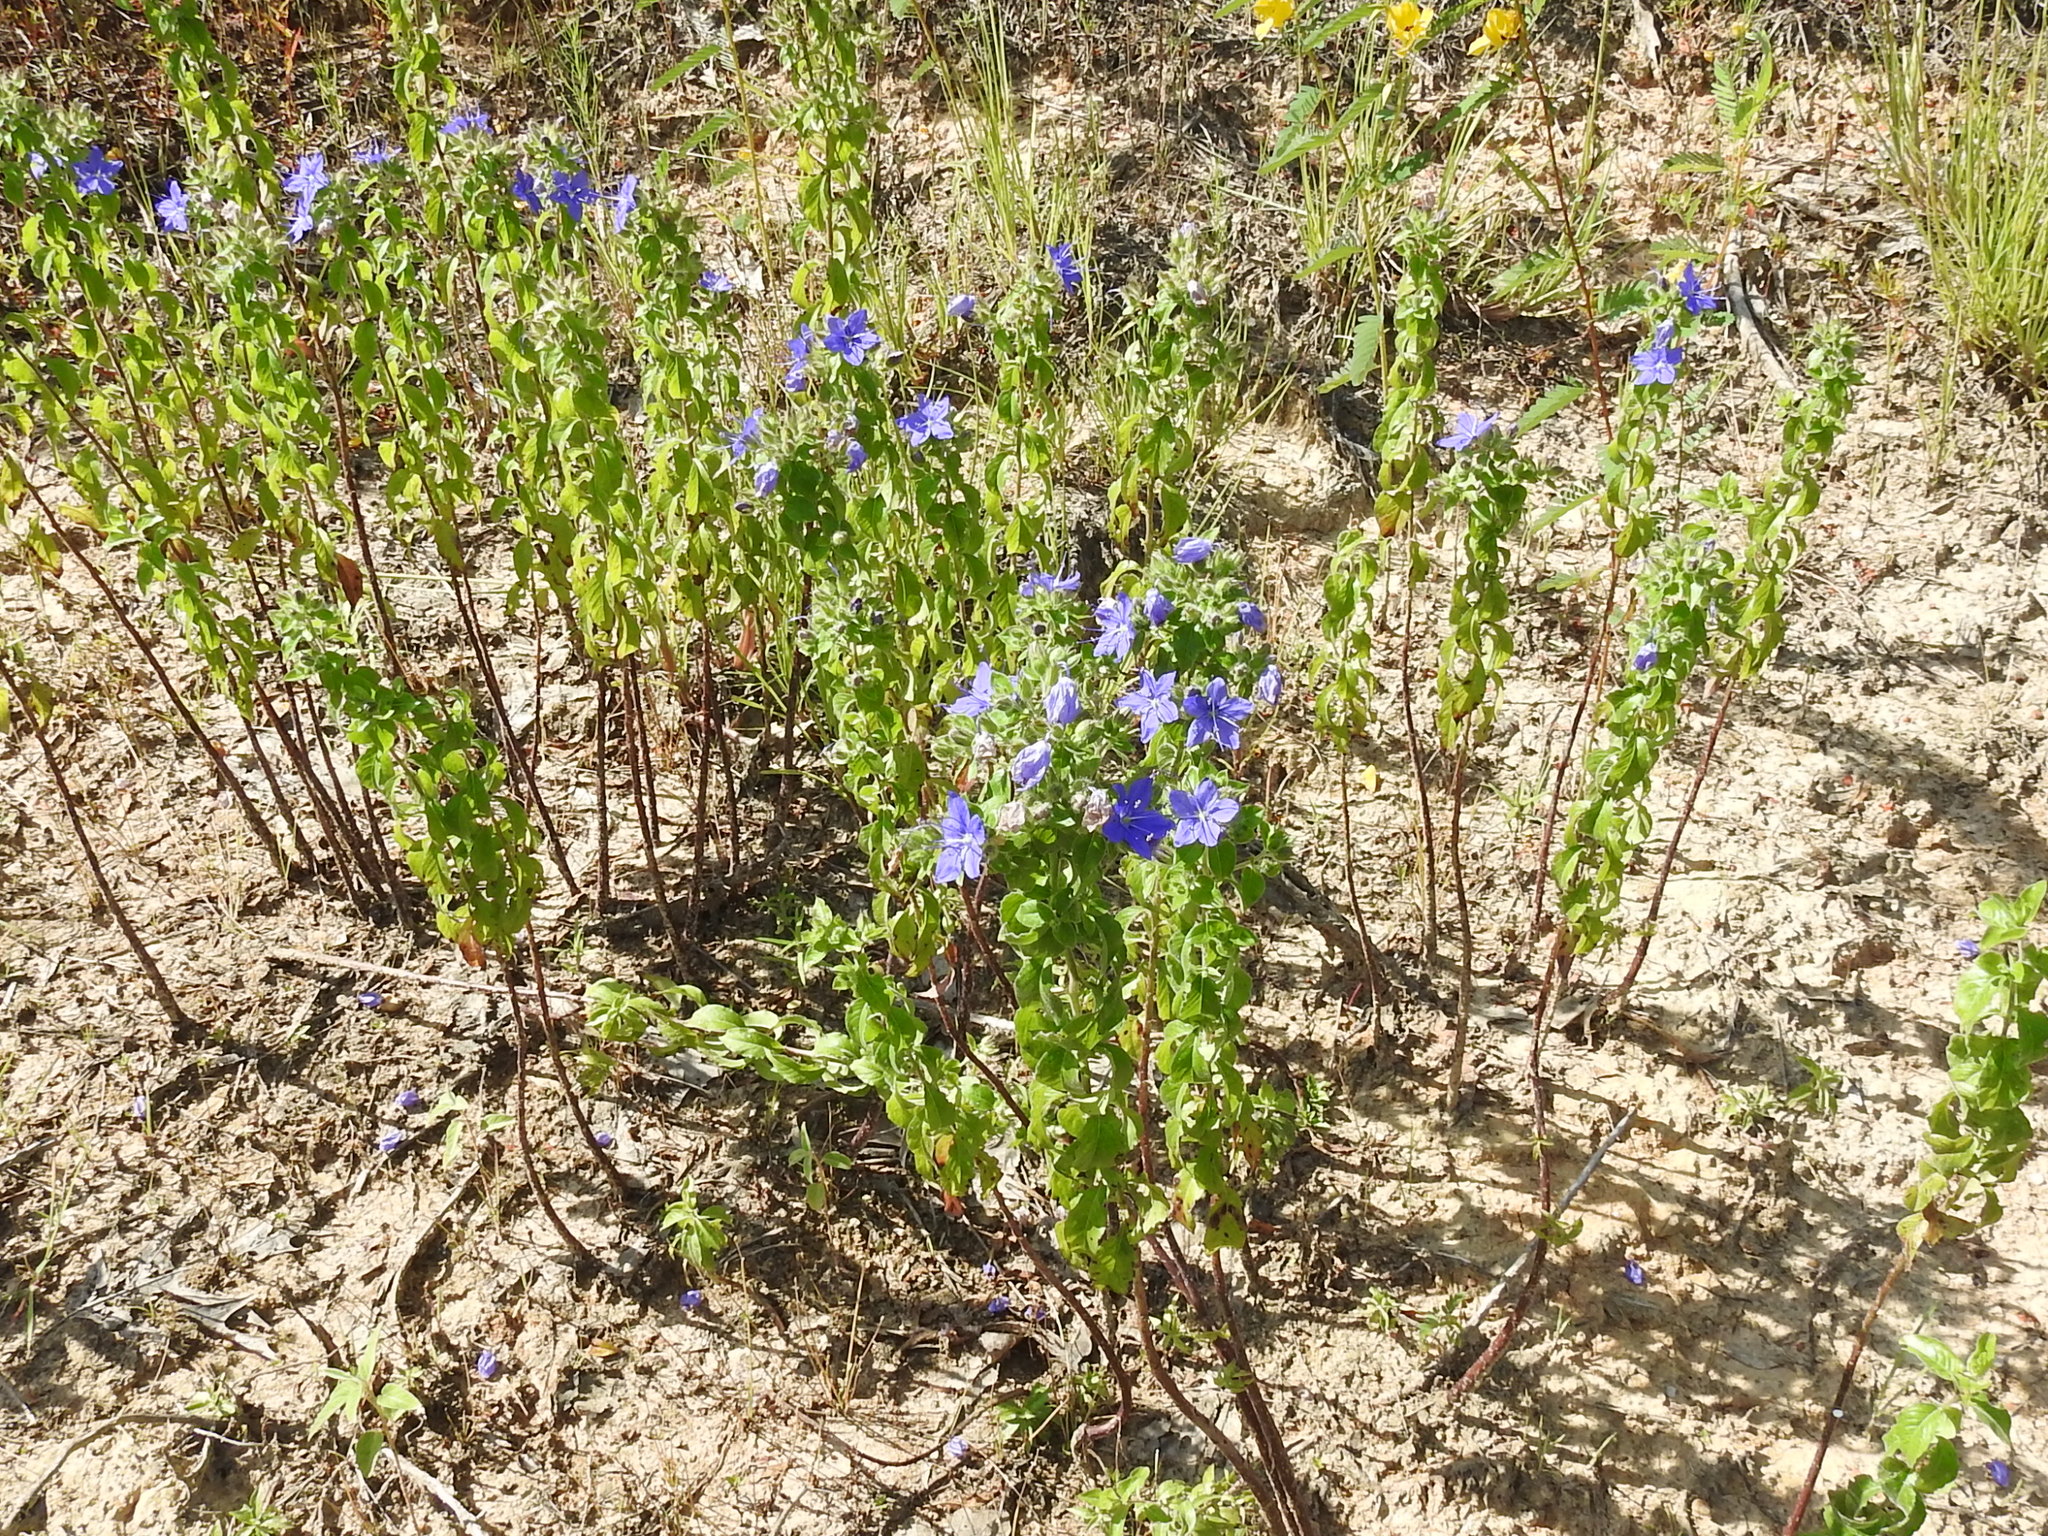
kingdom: Plantae
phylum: Tracheophyta
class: Magnoliopsida
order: Solanales
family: Hydroleaceae
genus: Hydrolea
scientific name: Hydrolea ovata
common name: Ovate false fiddleleaf
